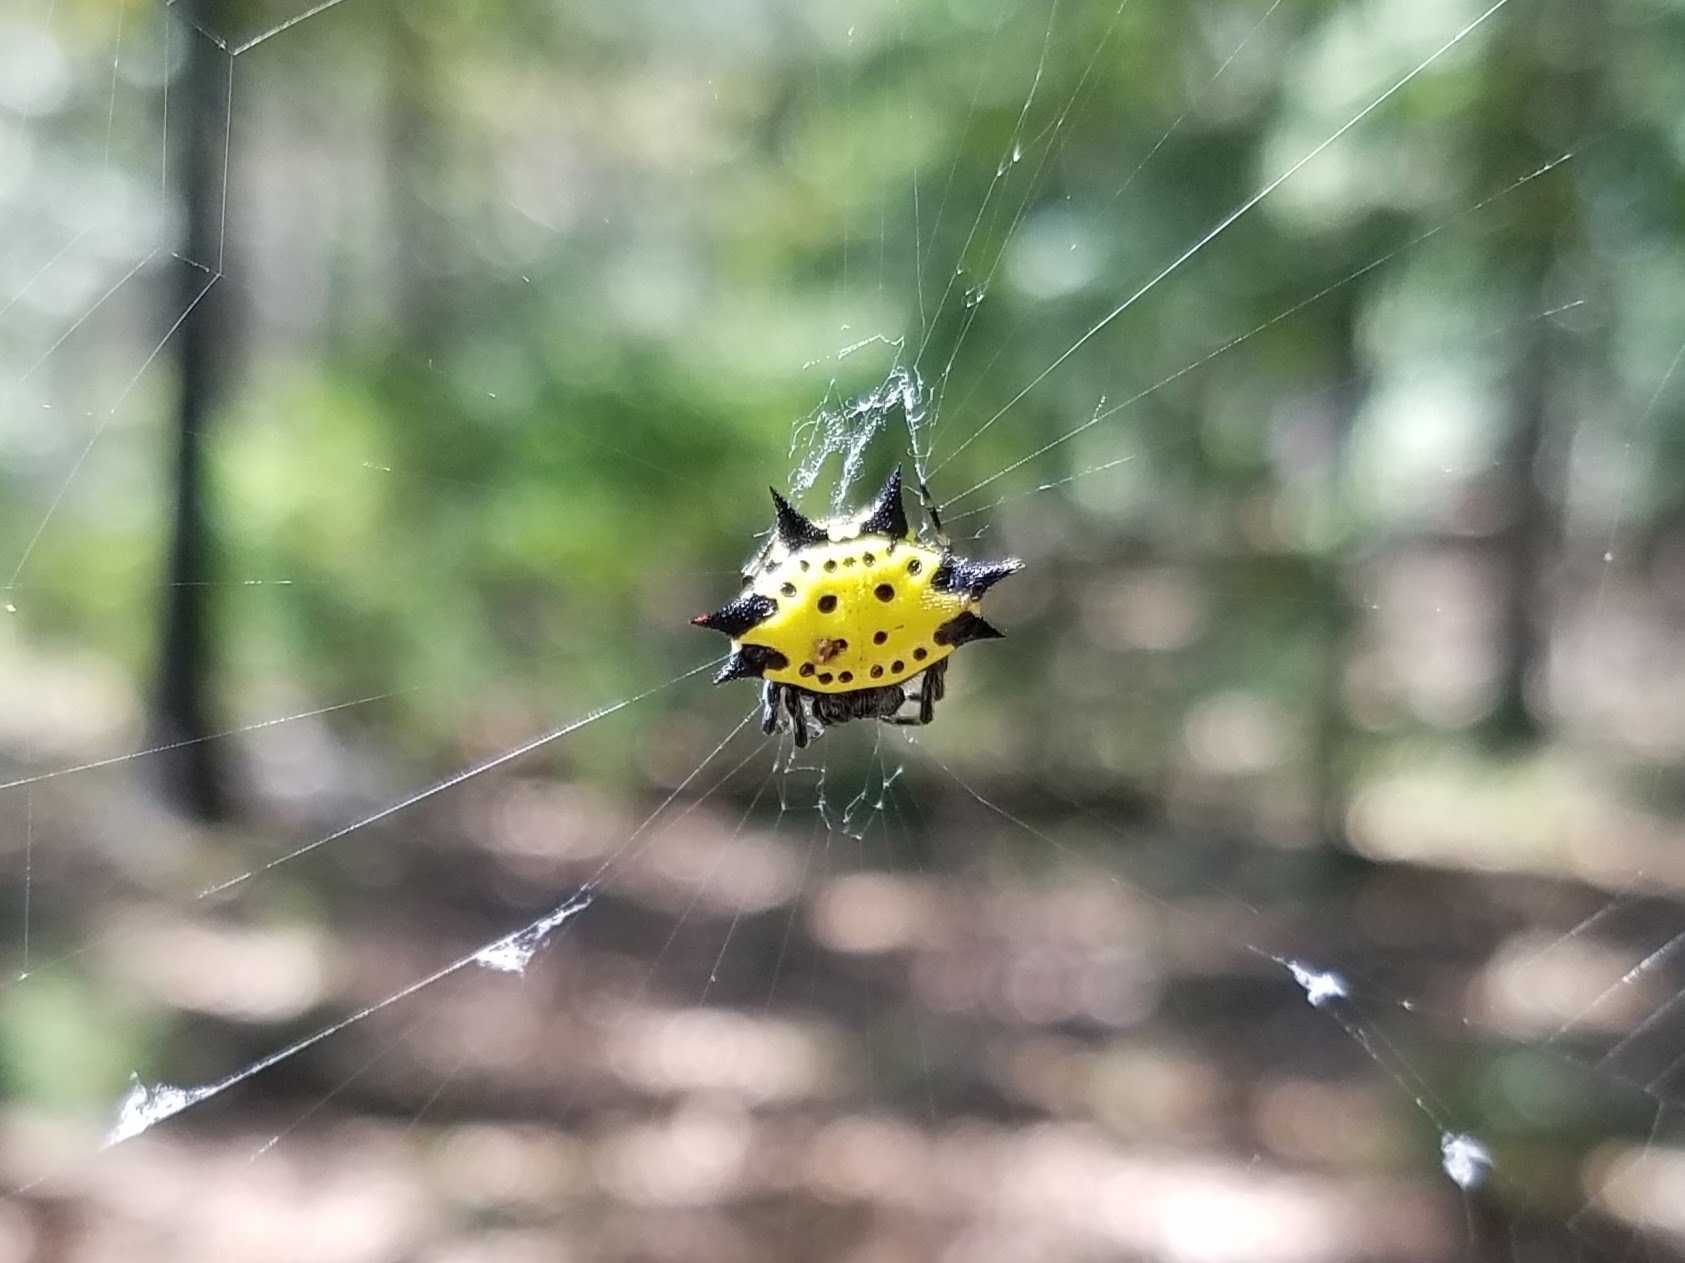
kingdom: Animalia
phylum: Arthropoda
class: Arachnida
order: Araneae
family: Araneidae
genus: Gasteracantha
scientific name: Gasteracantha cancriformis
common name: Orb weavers
